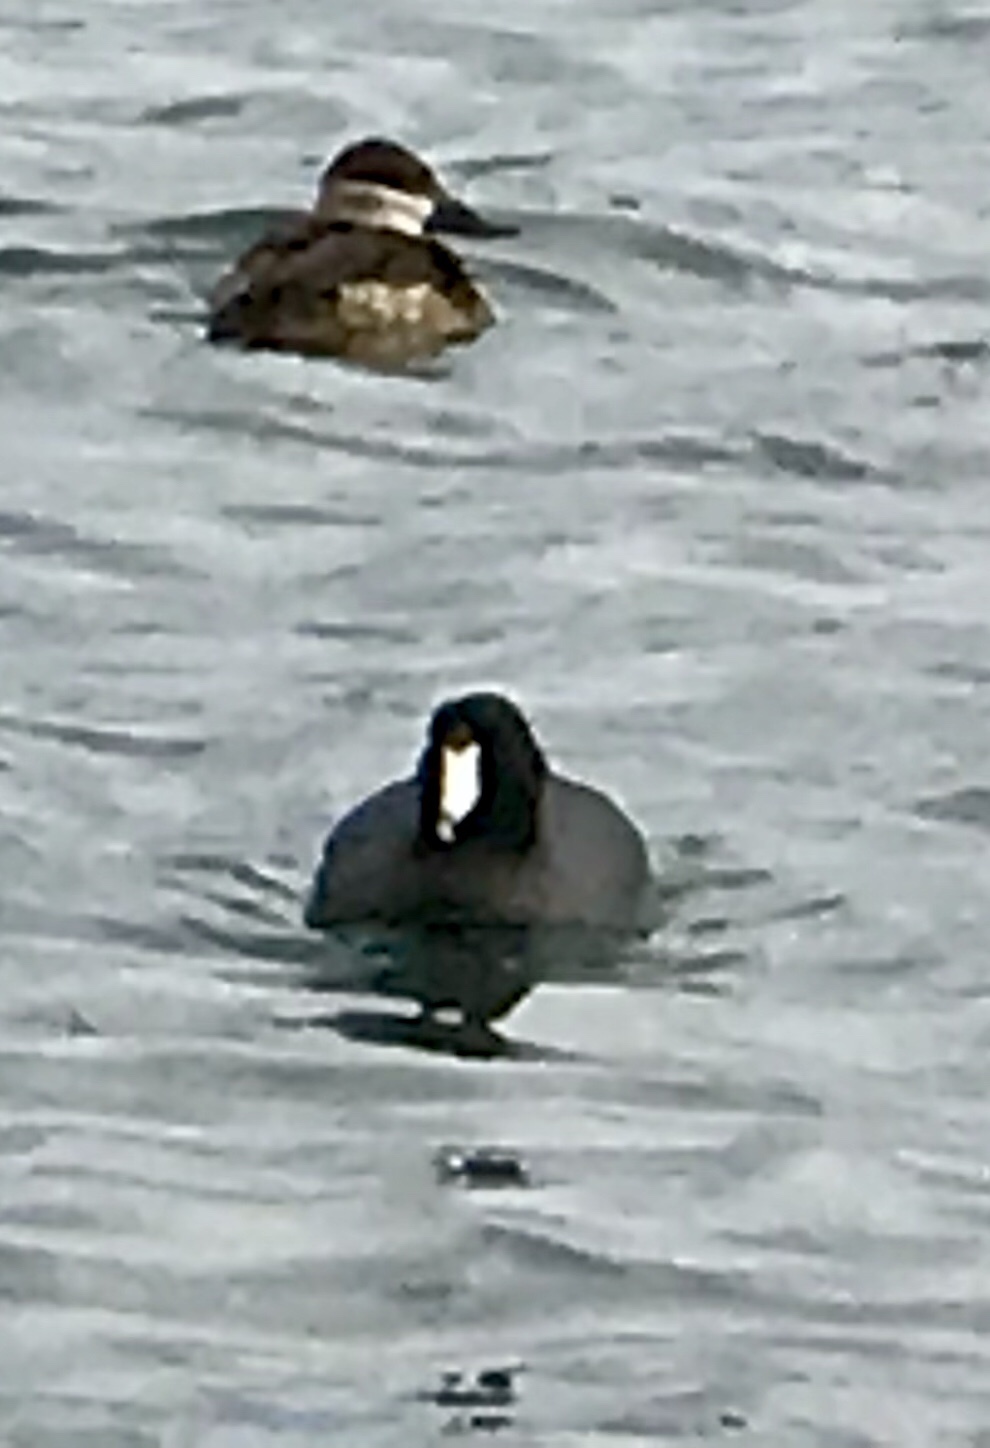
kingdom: Animalia
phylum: Chordata
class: Aves
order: Gruiformes
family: Rallidae
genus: Fulica
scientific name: Fulica americana
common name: American coot
